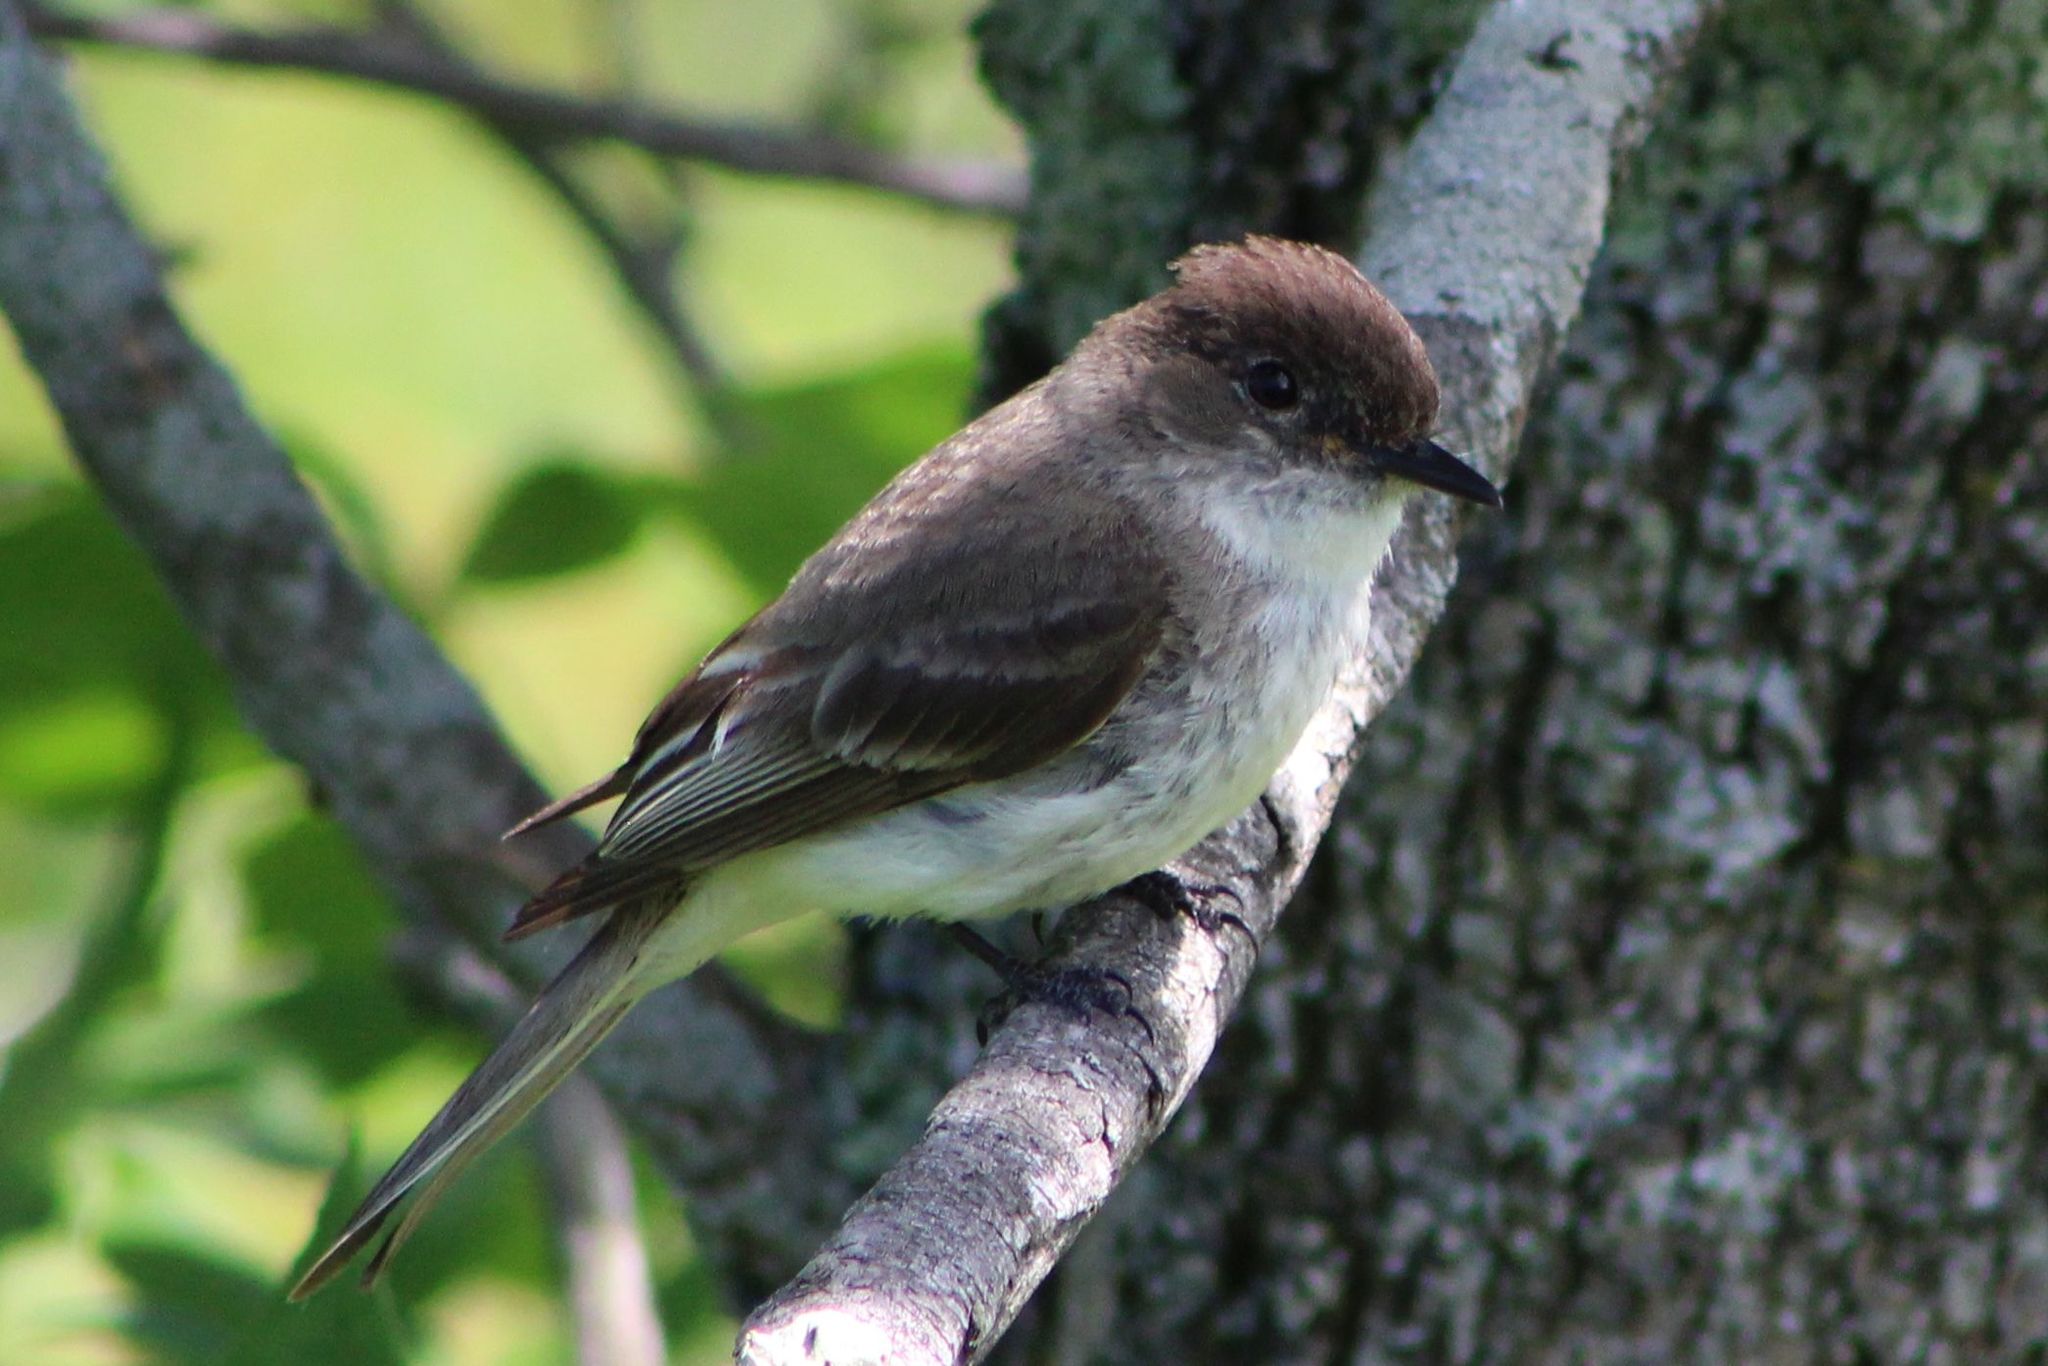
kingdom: Animalia
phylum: Chordata
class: Aves
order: Passeriformes
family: Tyrannidae
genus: Sayornis
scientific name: Sayornis phoebe
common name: Eastern phoebe
